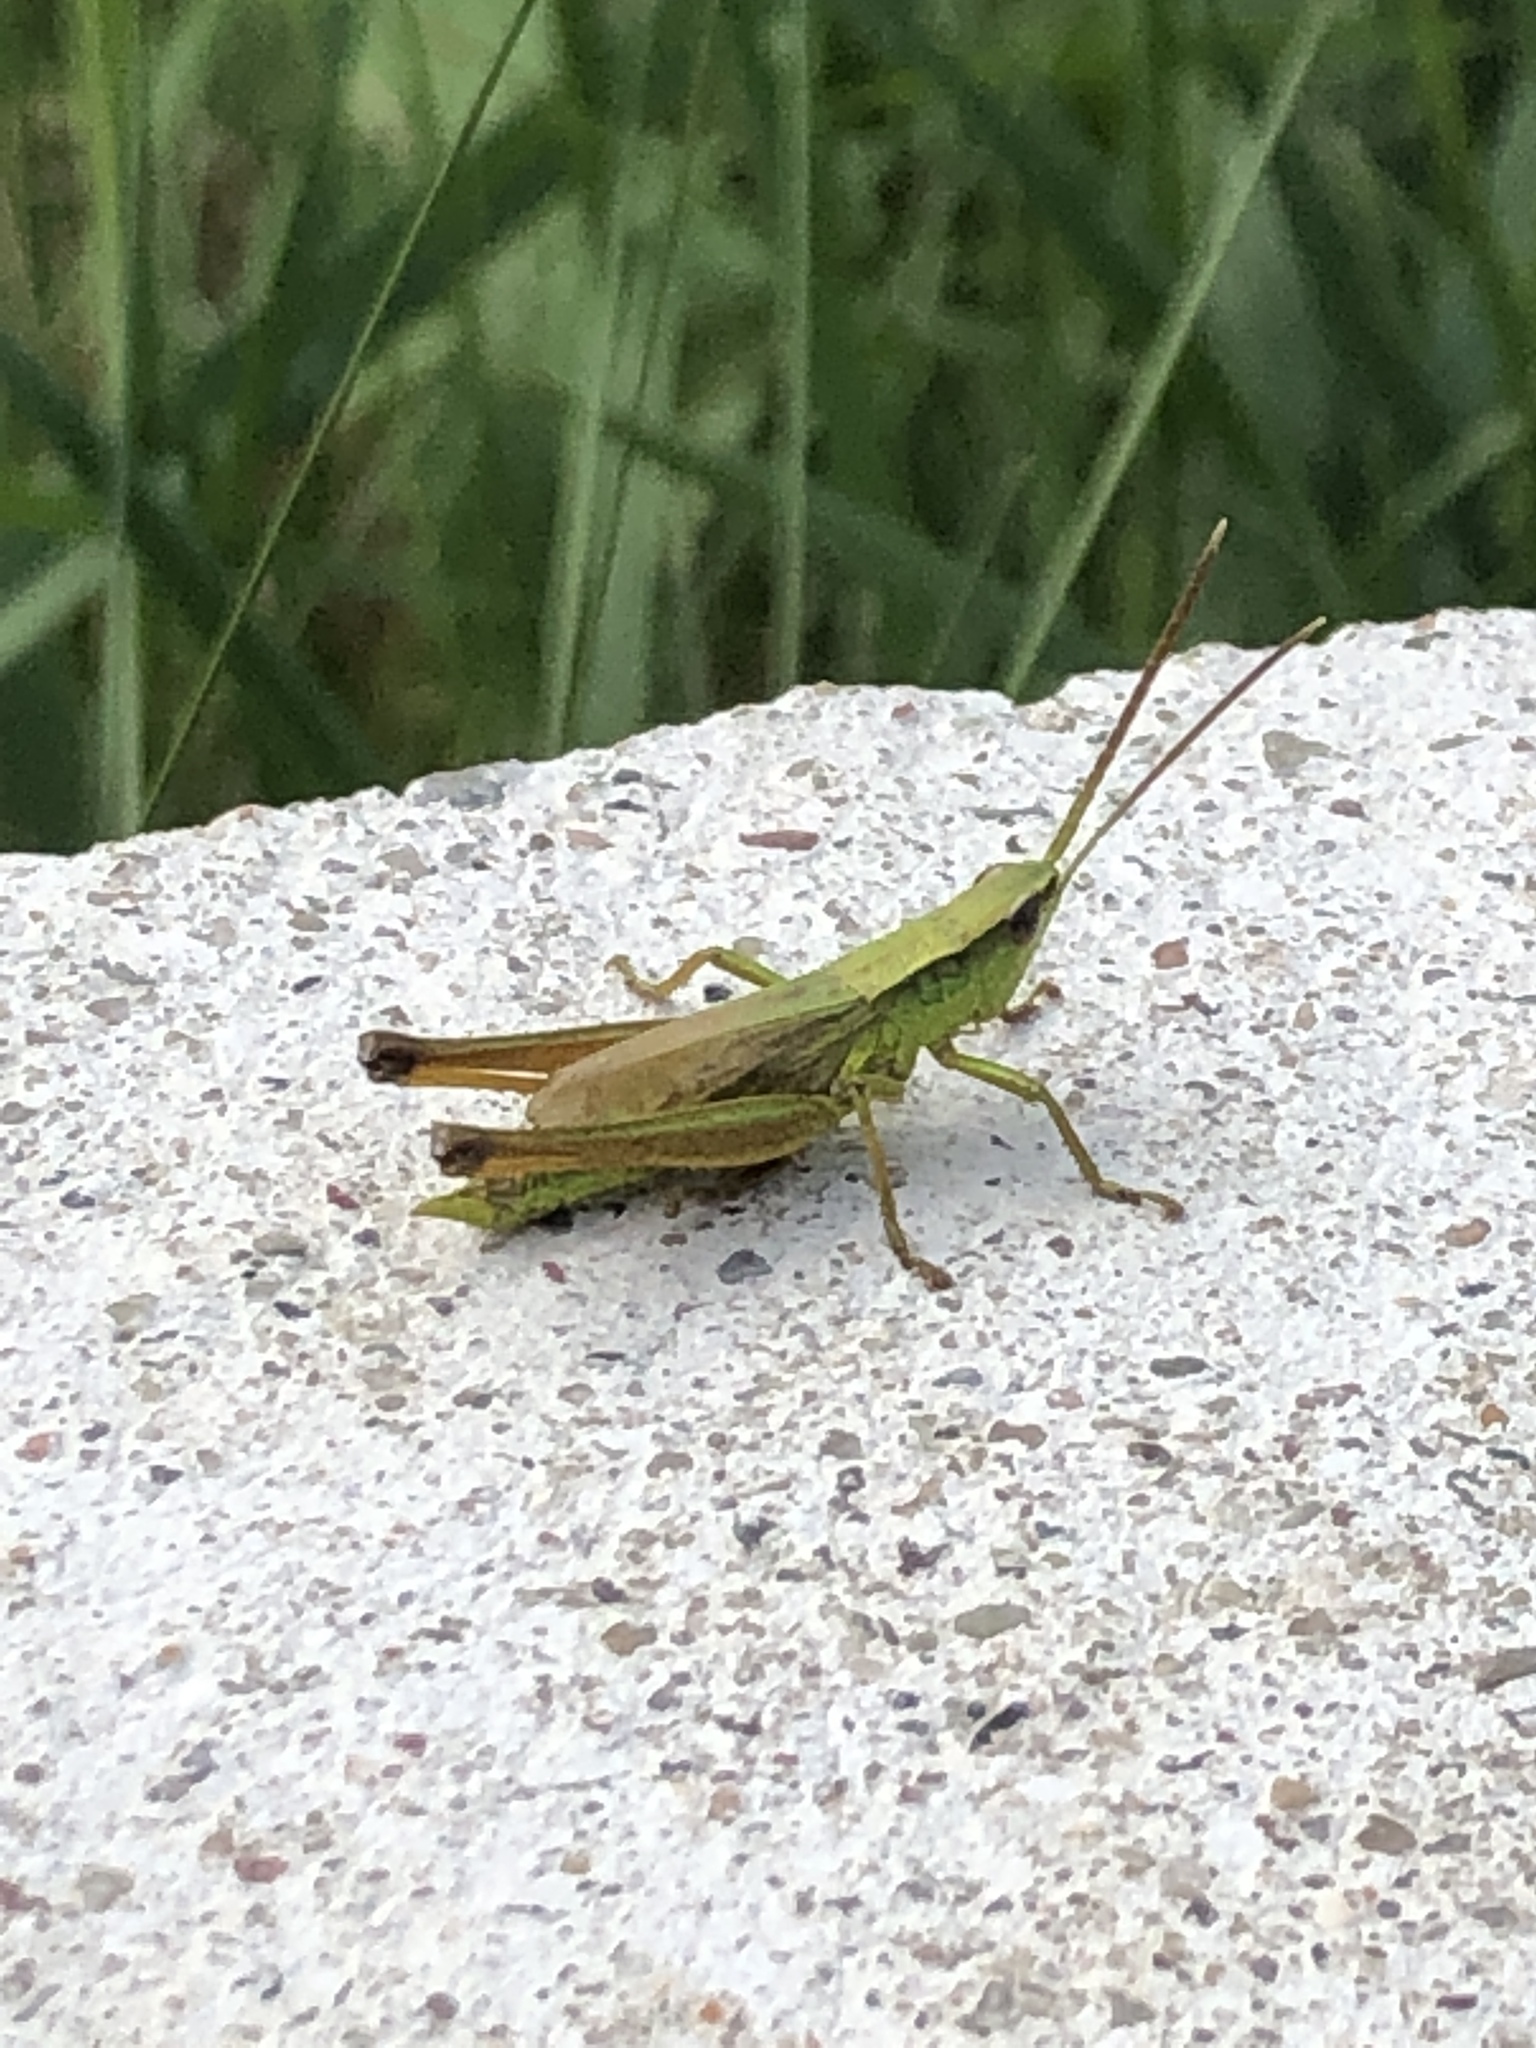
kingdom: Animalia
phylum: Arthropoda
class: Insecta
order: Orthoptera
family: Acrididae
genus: Chrysochraon
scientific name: Chrysochraon dispar
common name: Large gold grasshopper
